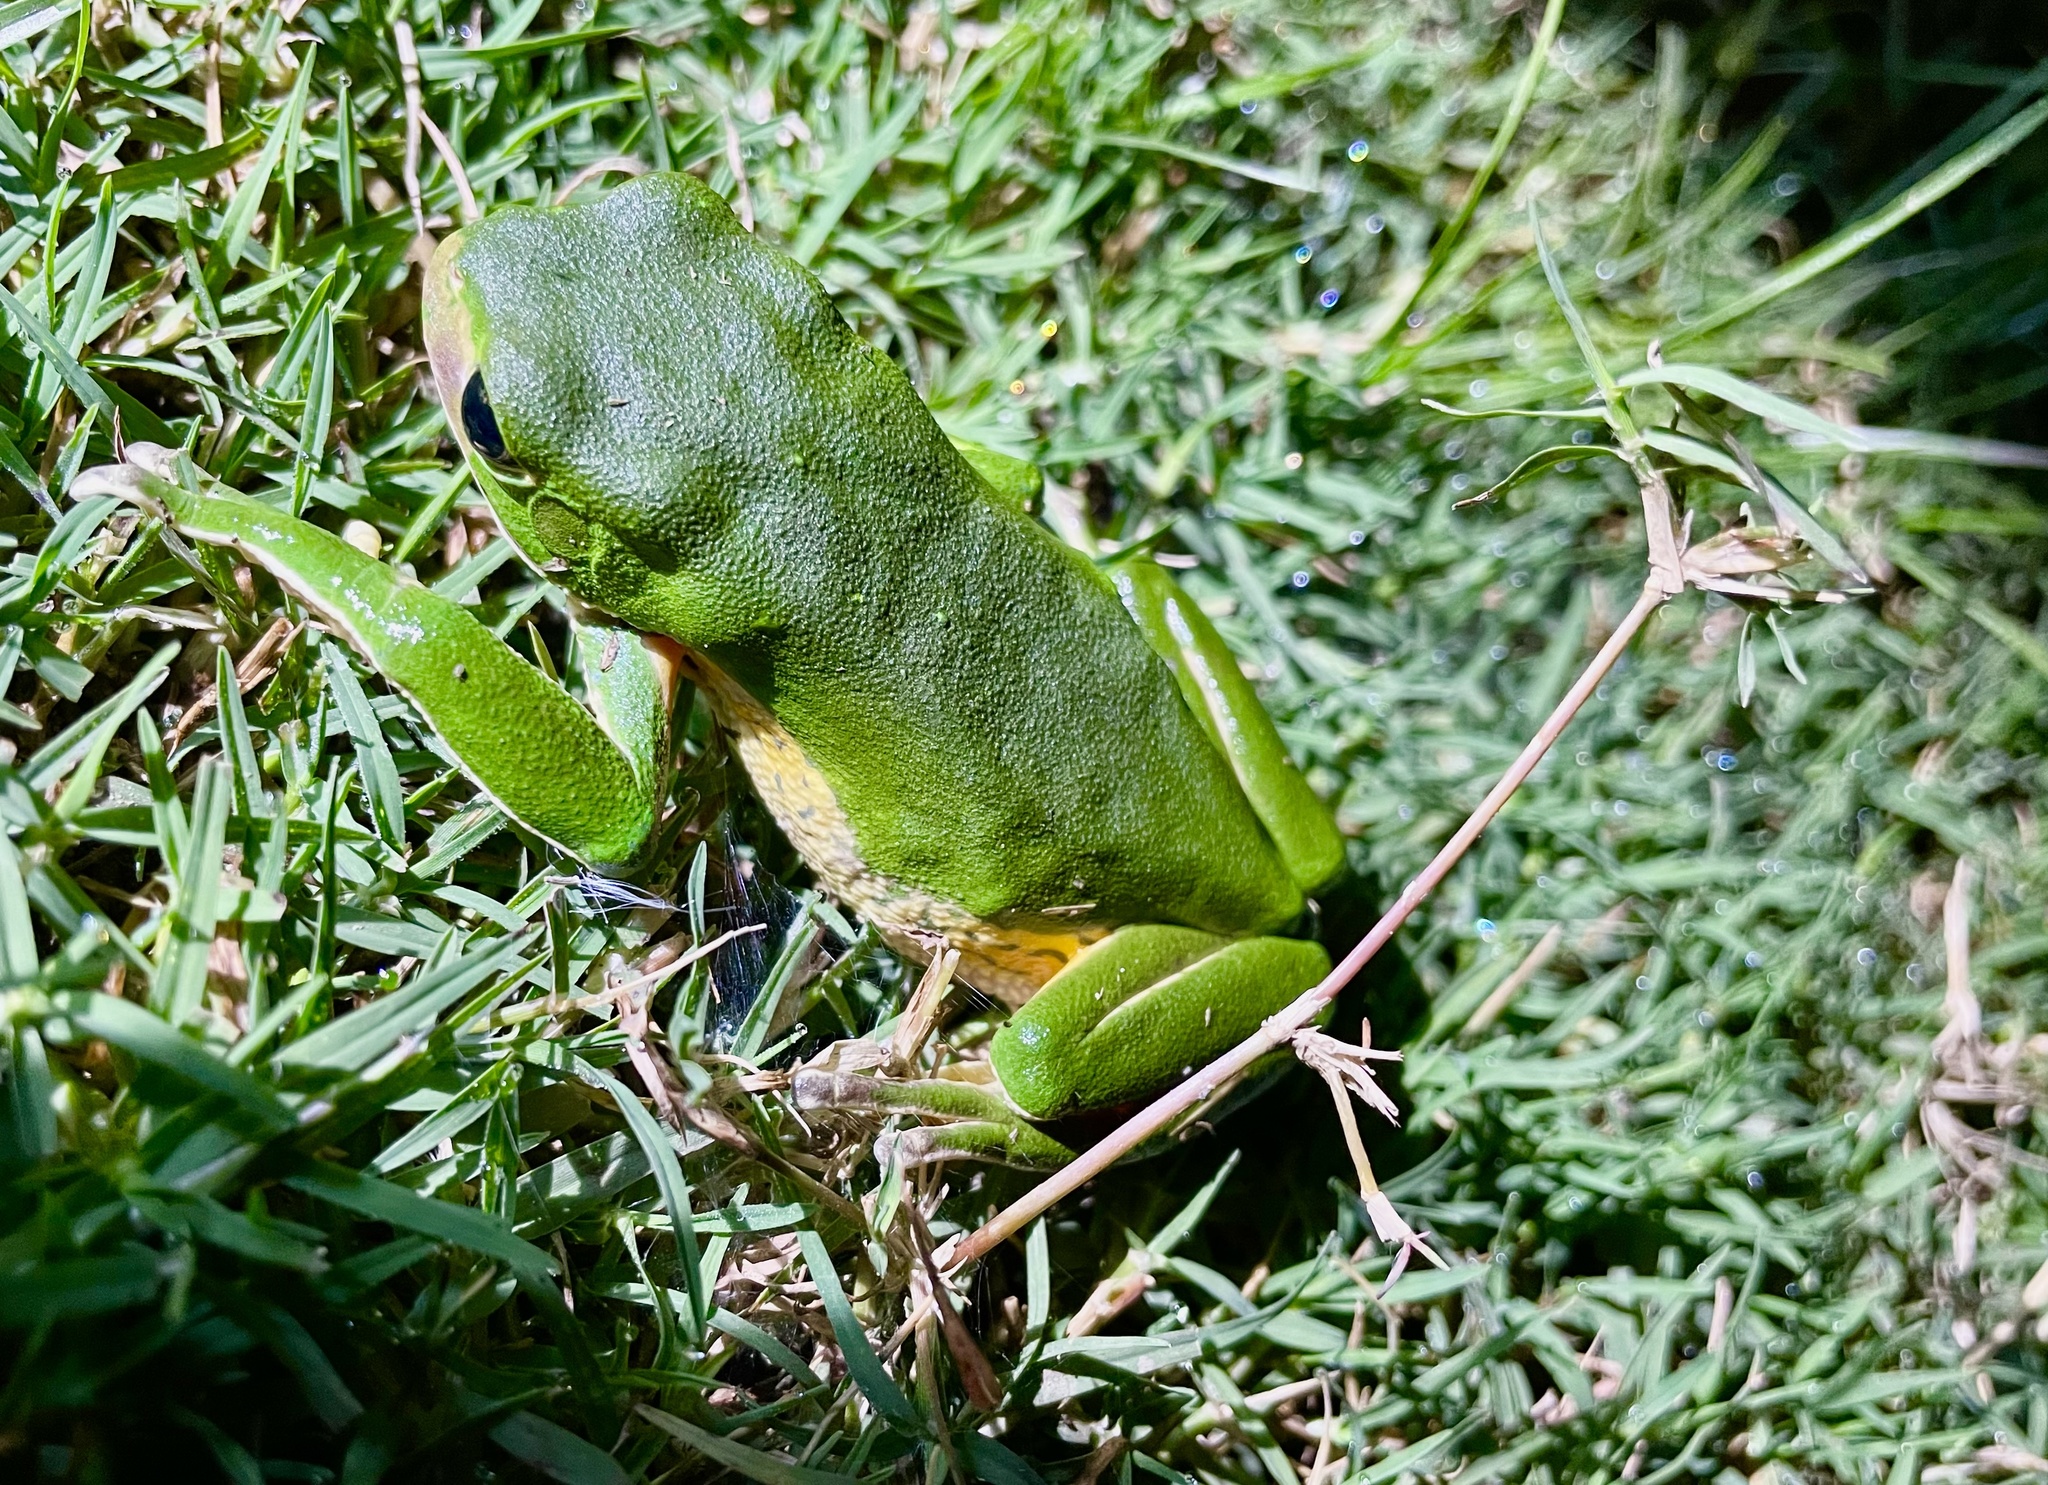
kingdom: Animalia
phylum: Chordata
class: Amphibia
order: Anura
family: Phyllomedusidae
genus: Phyllomedusa
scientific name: Phyllomedusa iheringii
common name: Southern walking leaf frog
